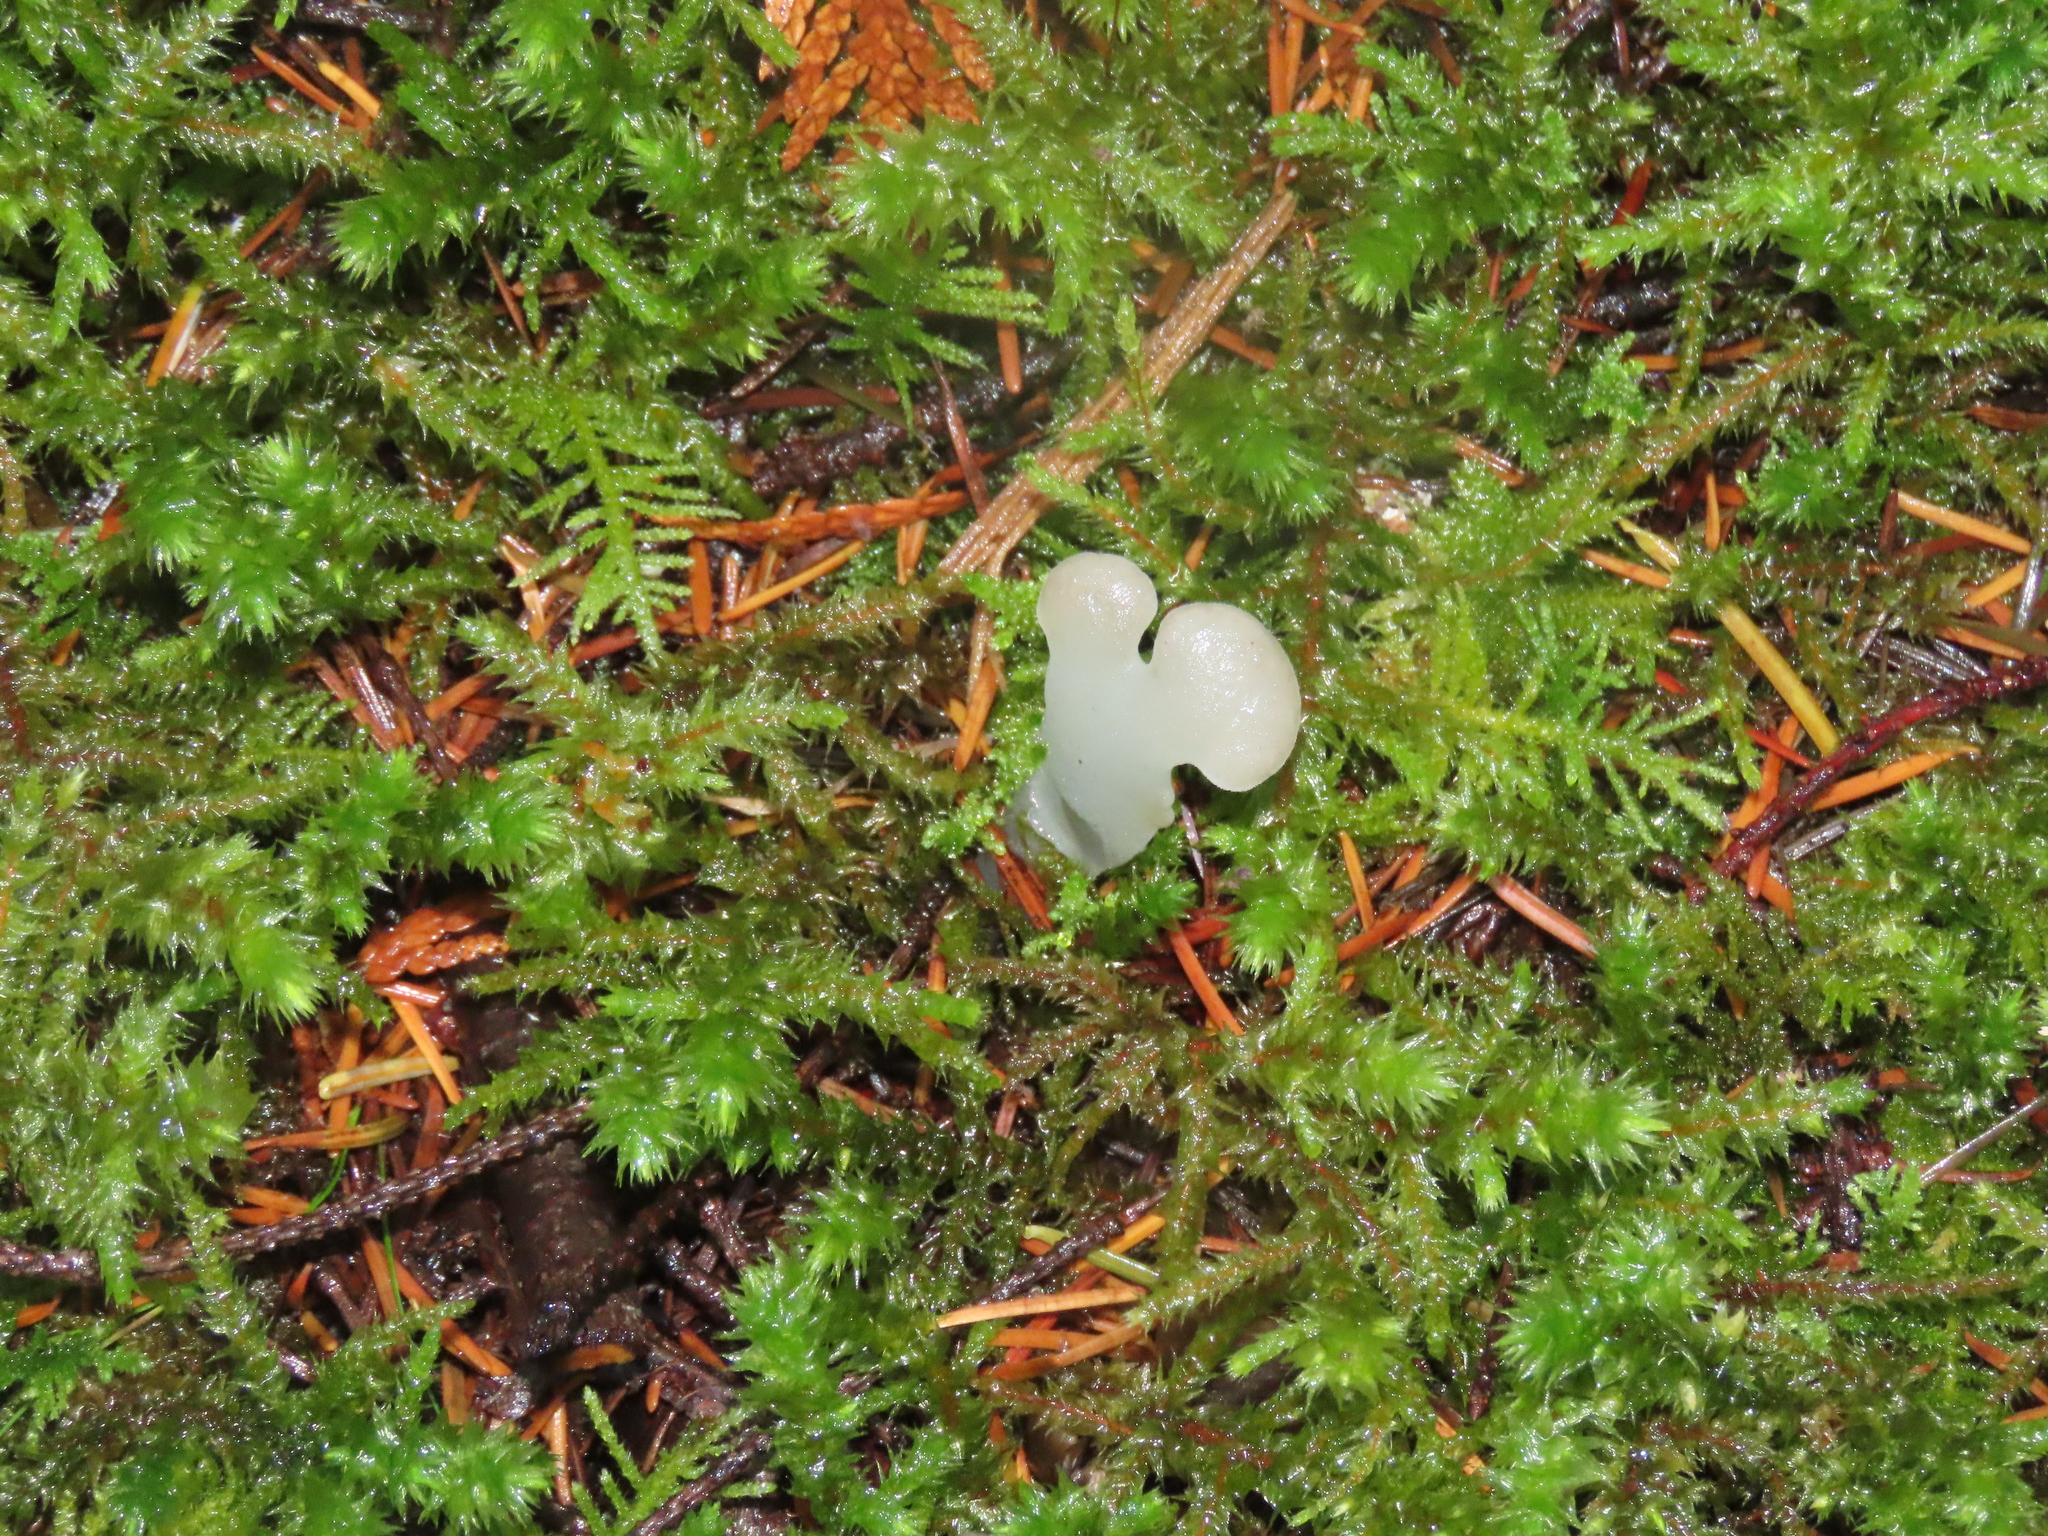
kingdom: Fungi
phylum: Basidiomycota
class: Agaricomycetes
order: Auriculariales
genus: Pseudohydnum
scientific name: Pseudohydnum gelatinosum
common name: Jelly tongue
